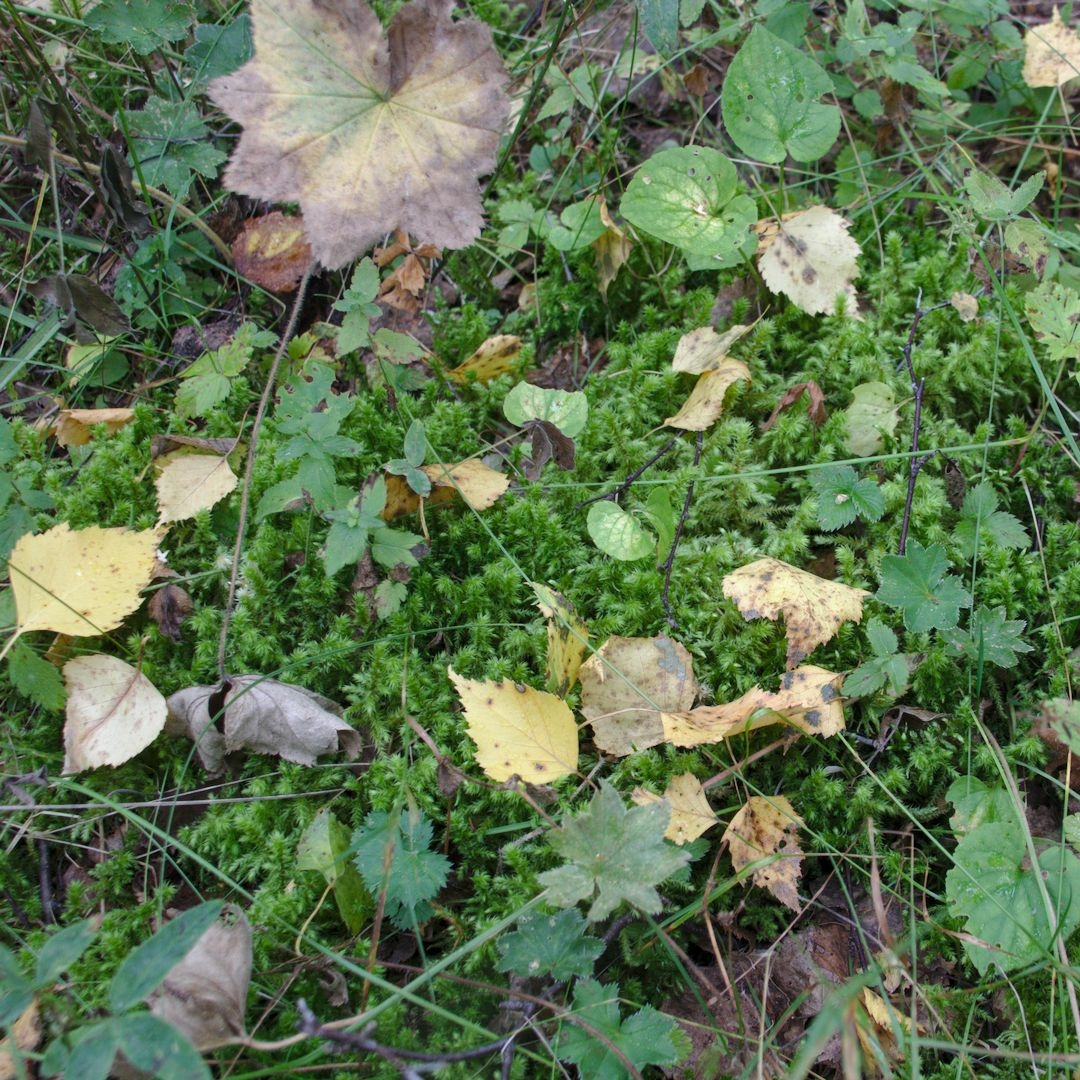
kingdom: Plantae
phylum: Bryophyta
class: Bryopsida
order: Hypnales
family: Hylocomiaceae
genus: Hylocomiadelphus
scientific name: Hylocomiadelphus triquetrus
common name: Rough goose neck moss
